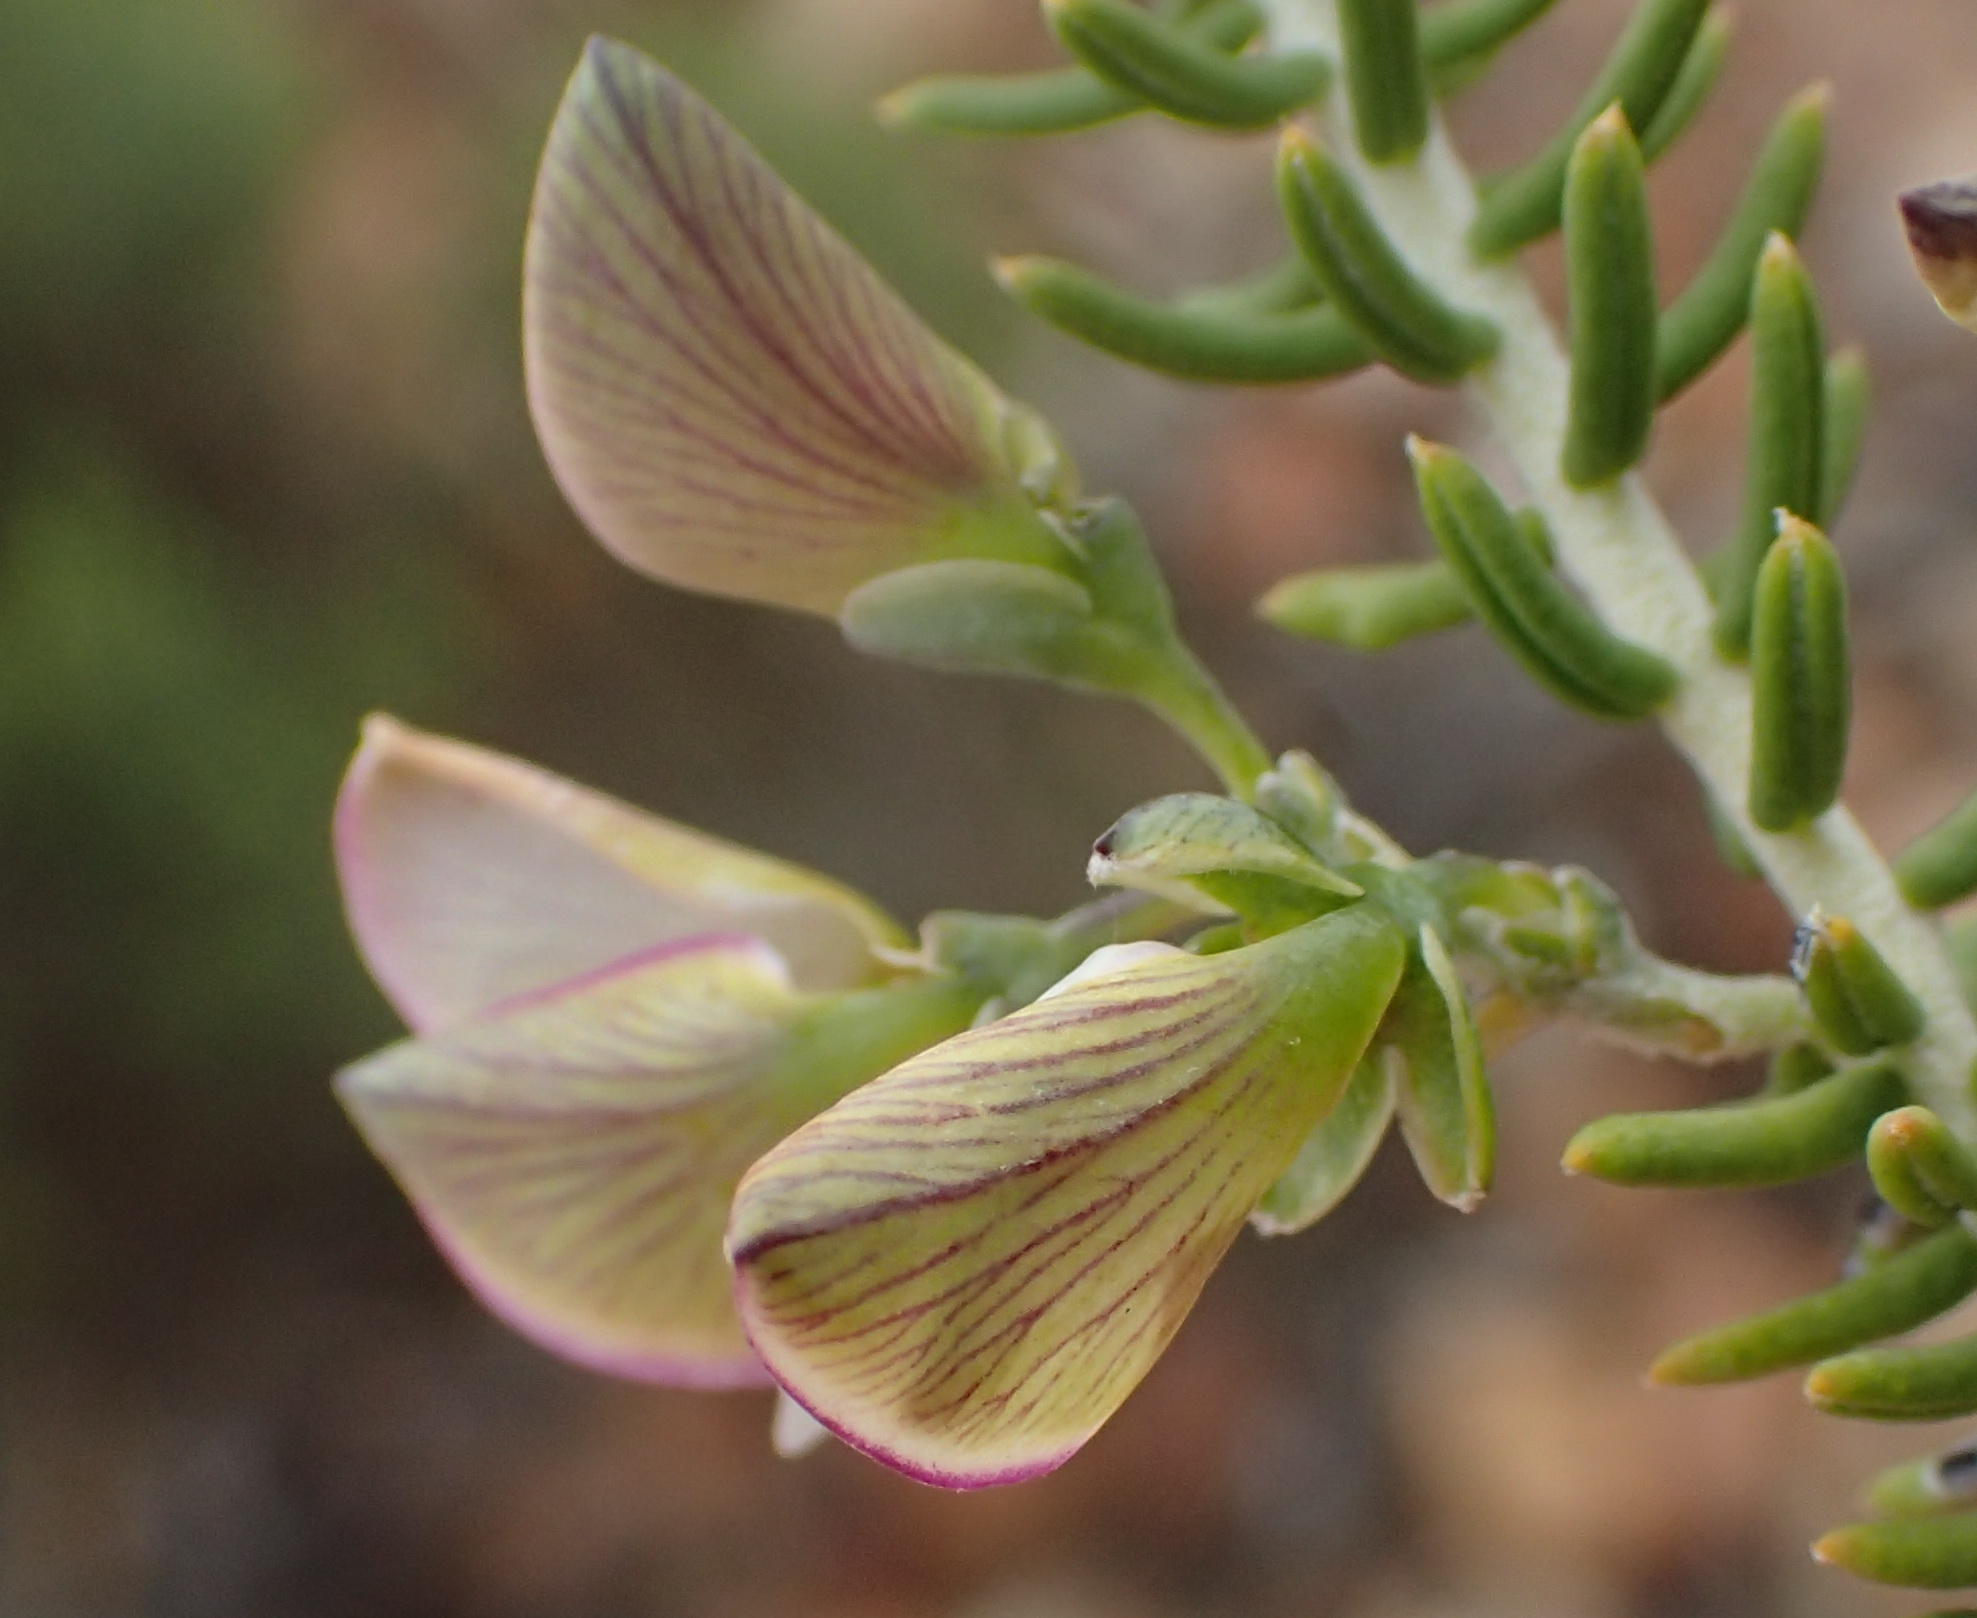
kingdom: Plantae
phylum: Tracheophyta
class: Magnoliopsida
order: Fabales
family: Polygalaceae
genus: Polygala
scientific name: Polygala teretifolia
